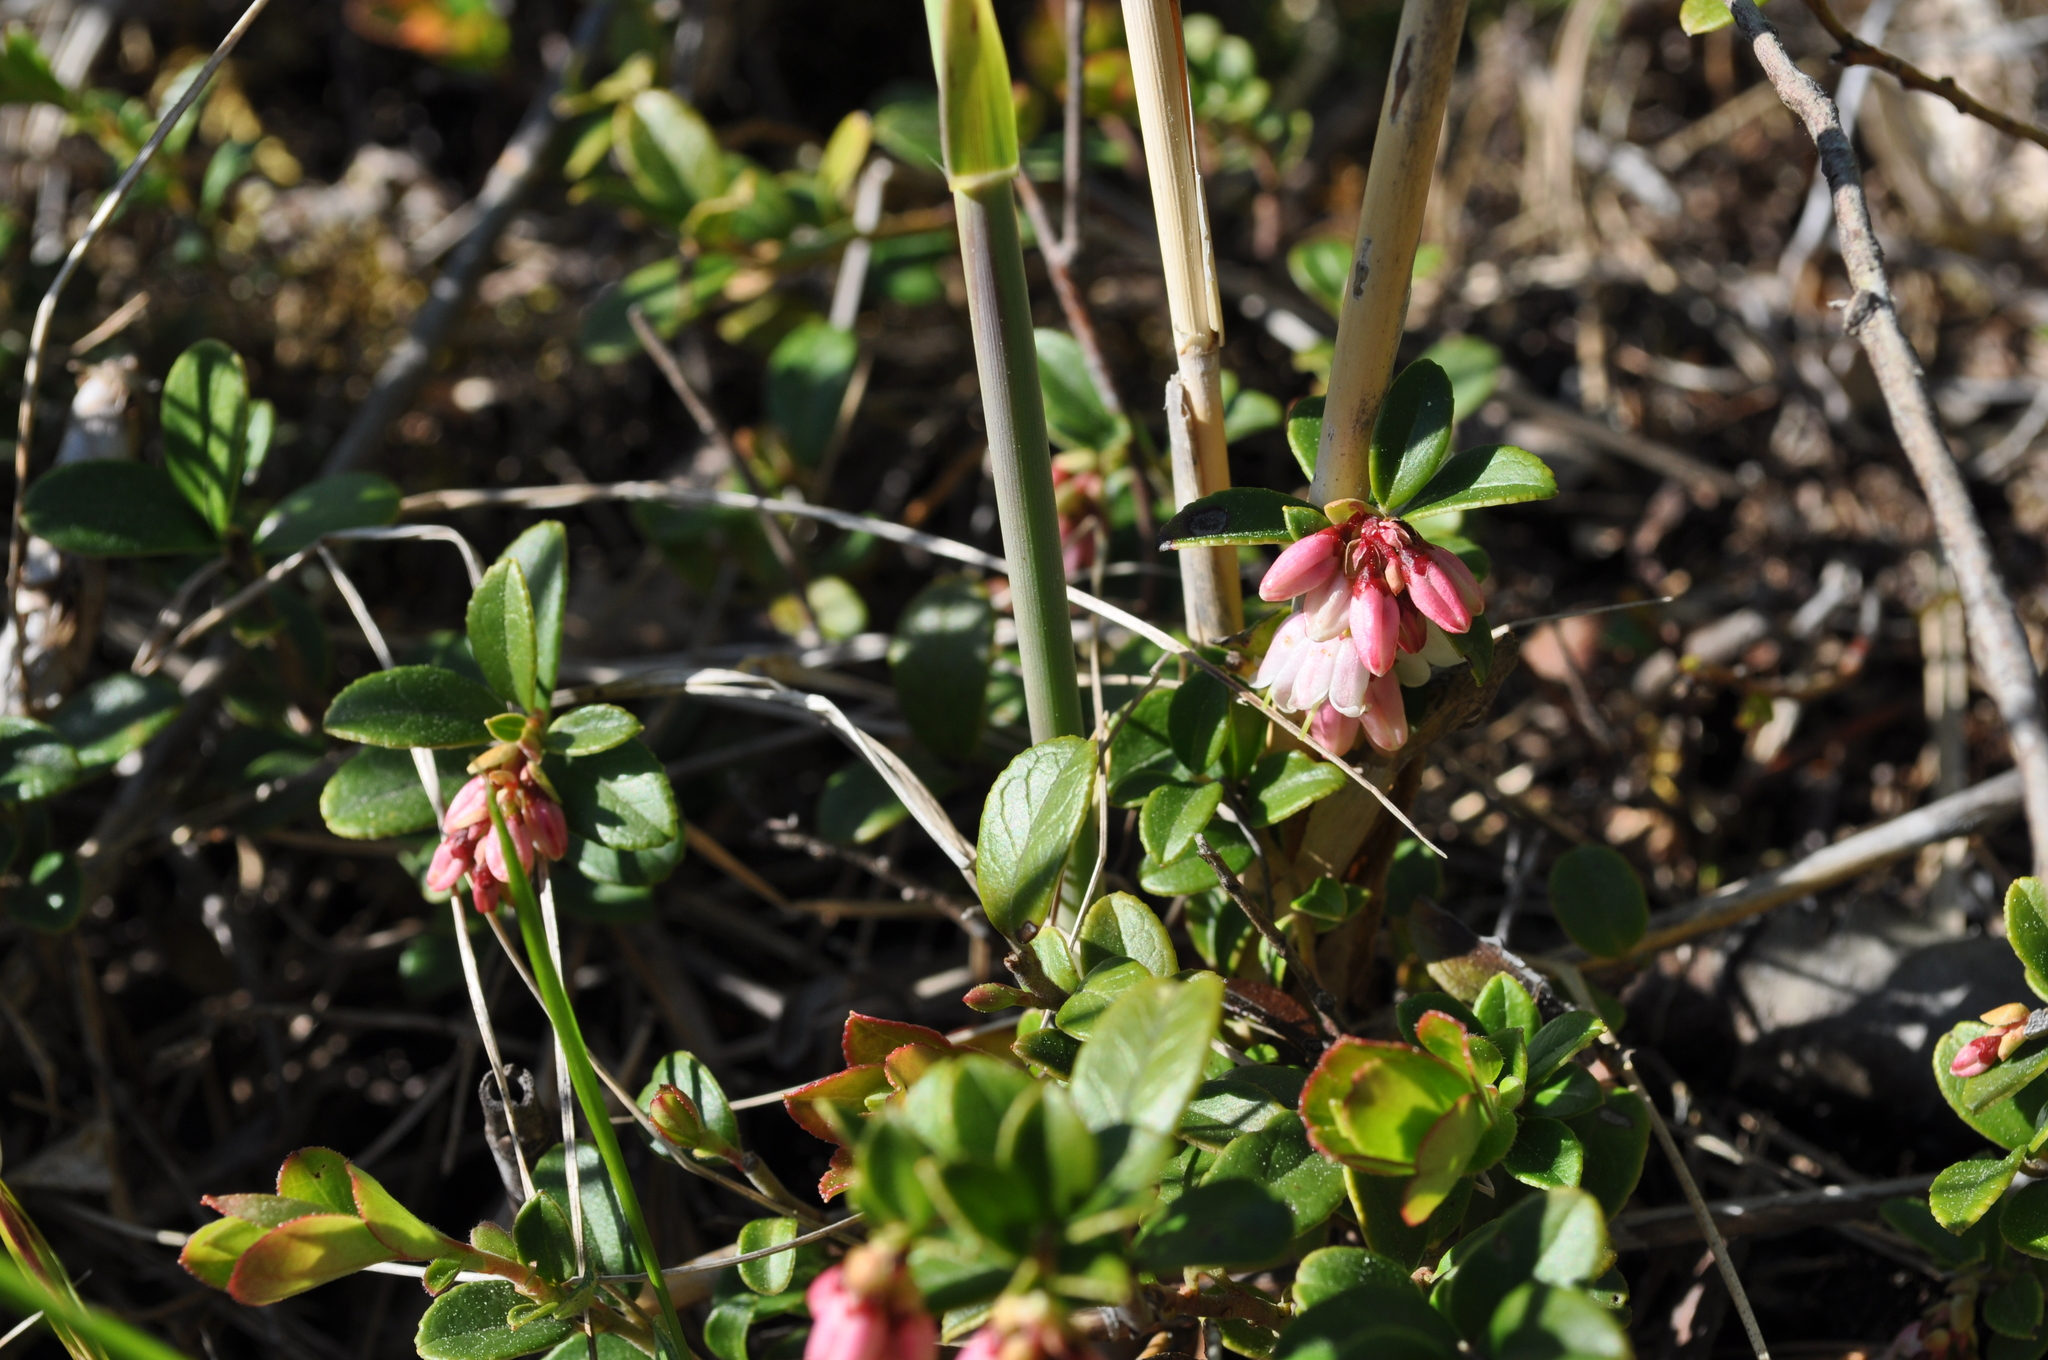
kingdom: Plantae
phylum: Tracheophyta
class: Magnoliopsida
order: Ericales
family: Ericaceae
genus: Vaccinium
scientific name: Vaccinium vitis-idaea
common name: Cowberry
